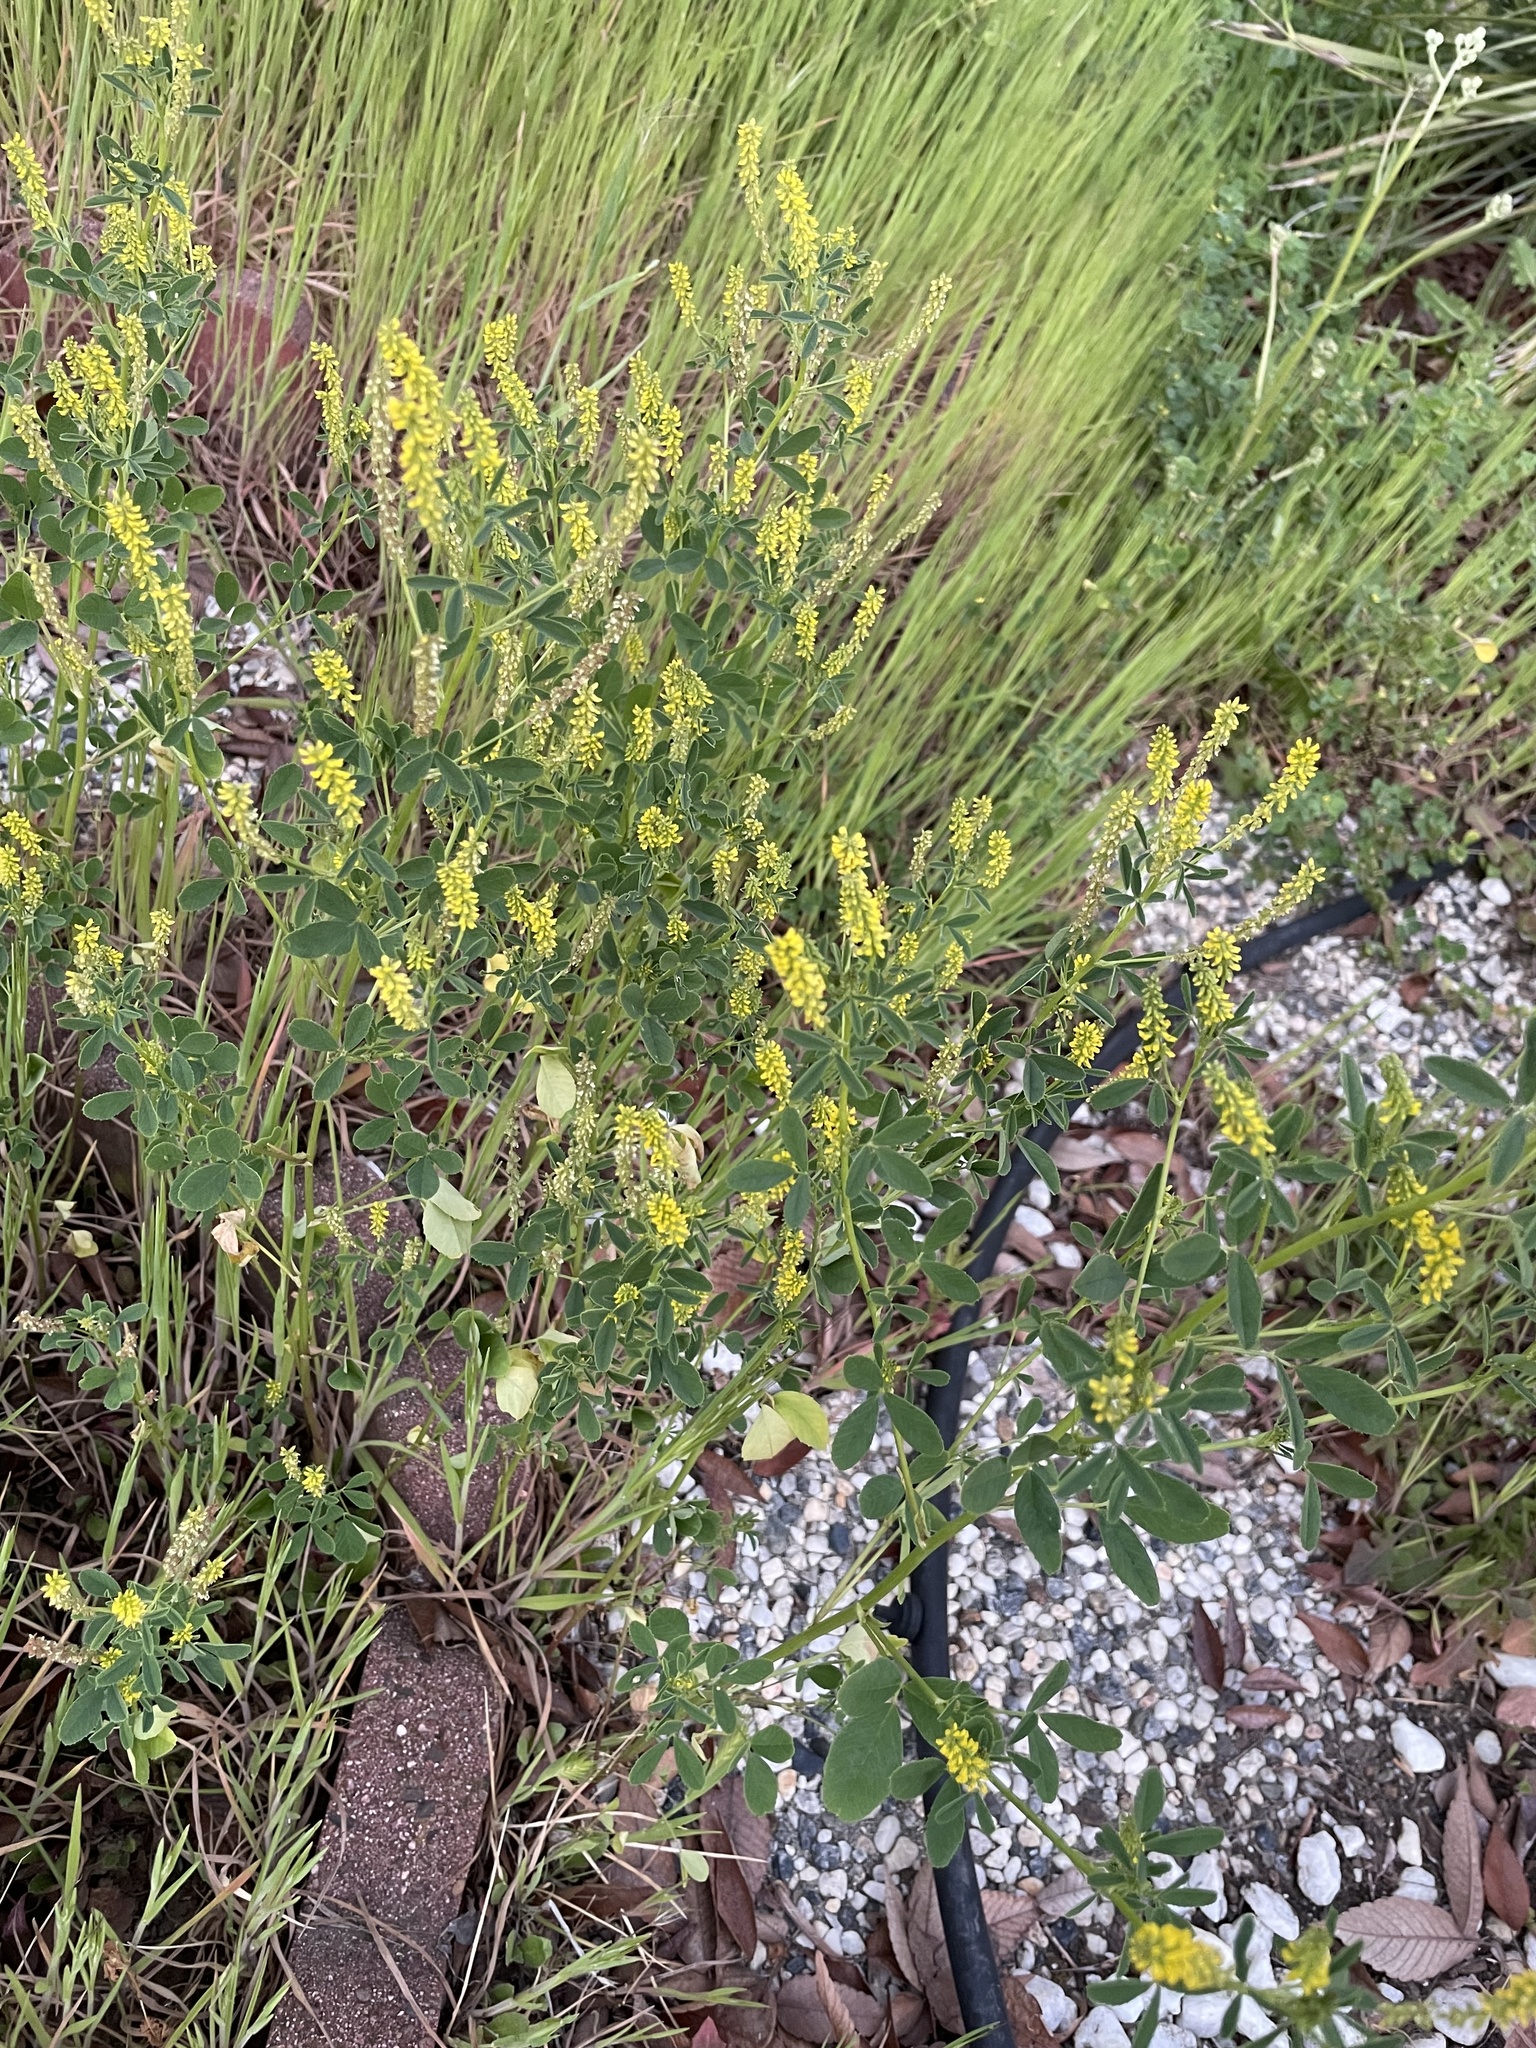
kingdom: Plantae
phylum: Tracheophyta
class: Magnoliopsida
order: Fabales
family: Fabaceae
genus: Melilotus
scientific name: Melilotus indicus
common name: Small melilot
